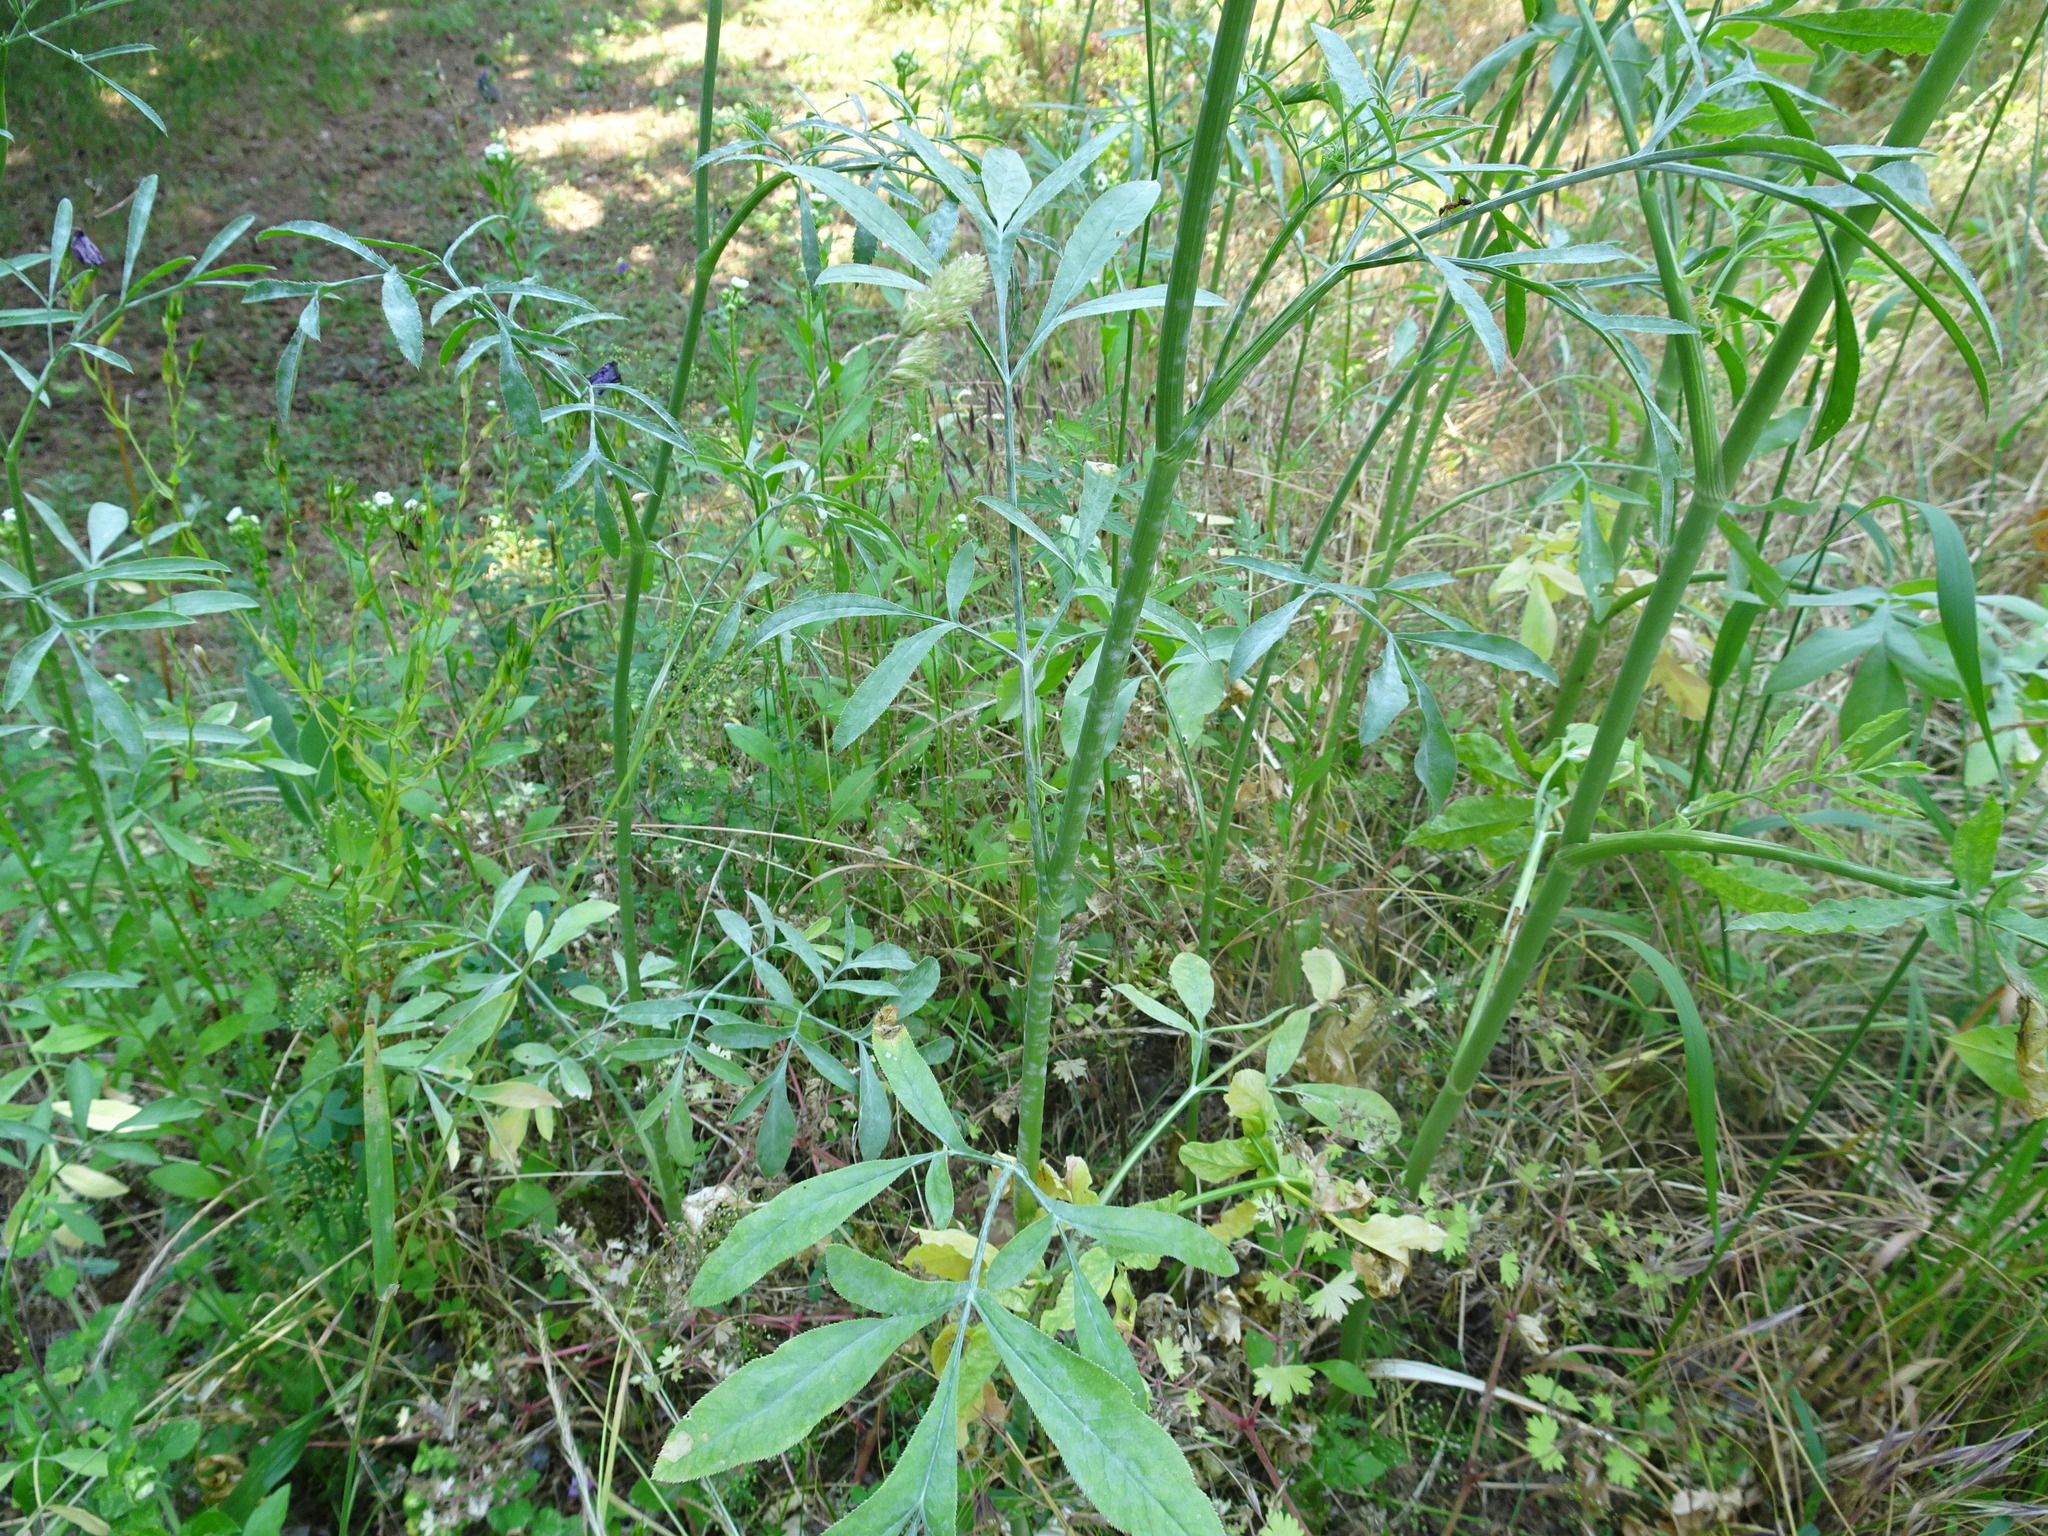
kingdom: Plantae
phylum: Tracheophyta
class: Magnoliopsida
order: Apiales
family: Apiaceae
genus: Ammi
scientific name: Ammi majus
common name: Bullwort
